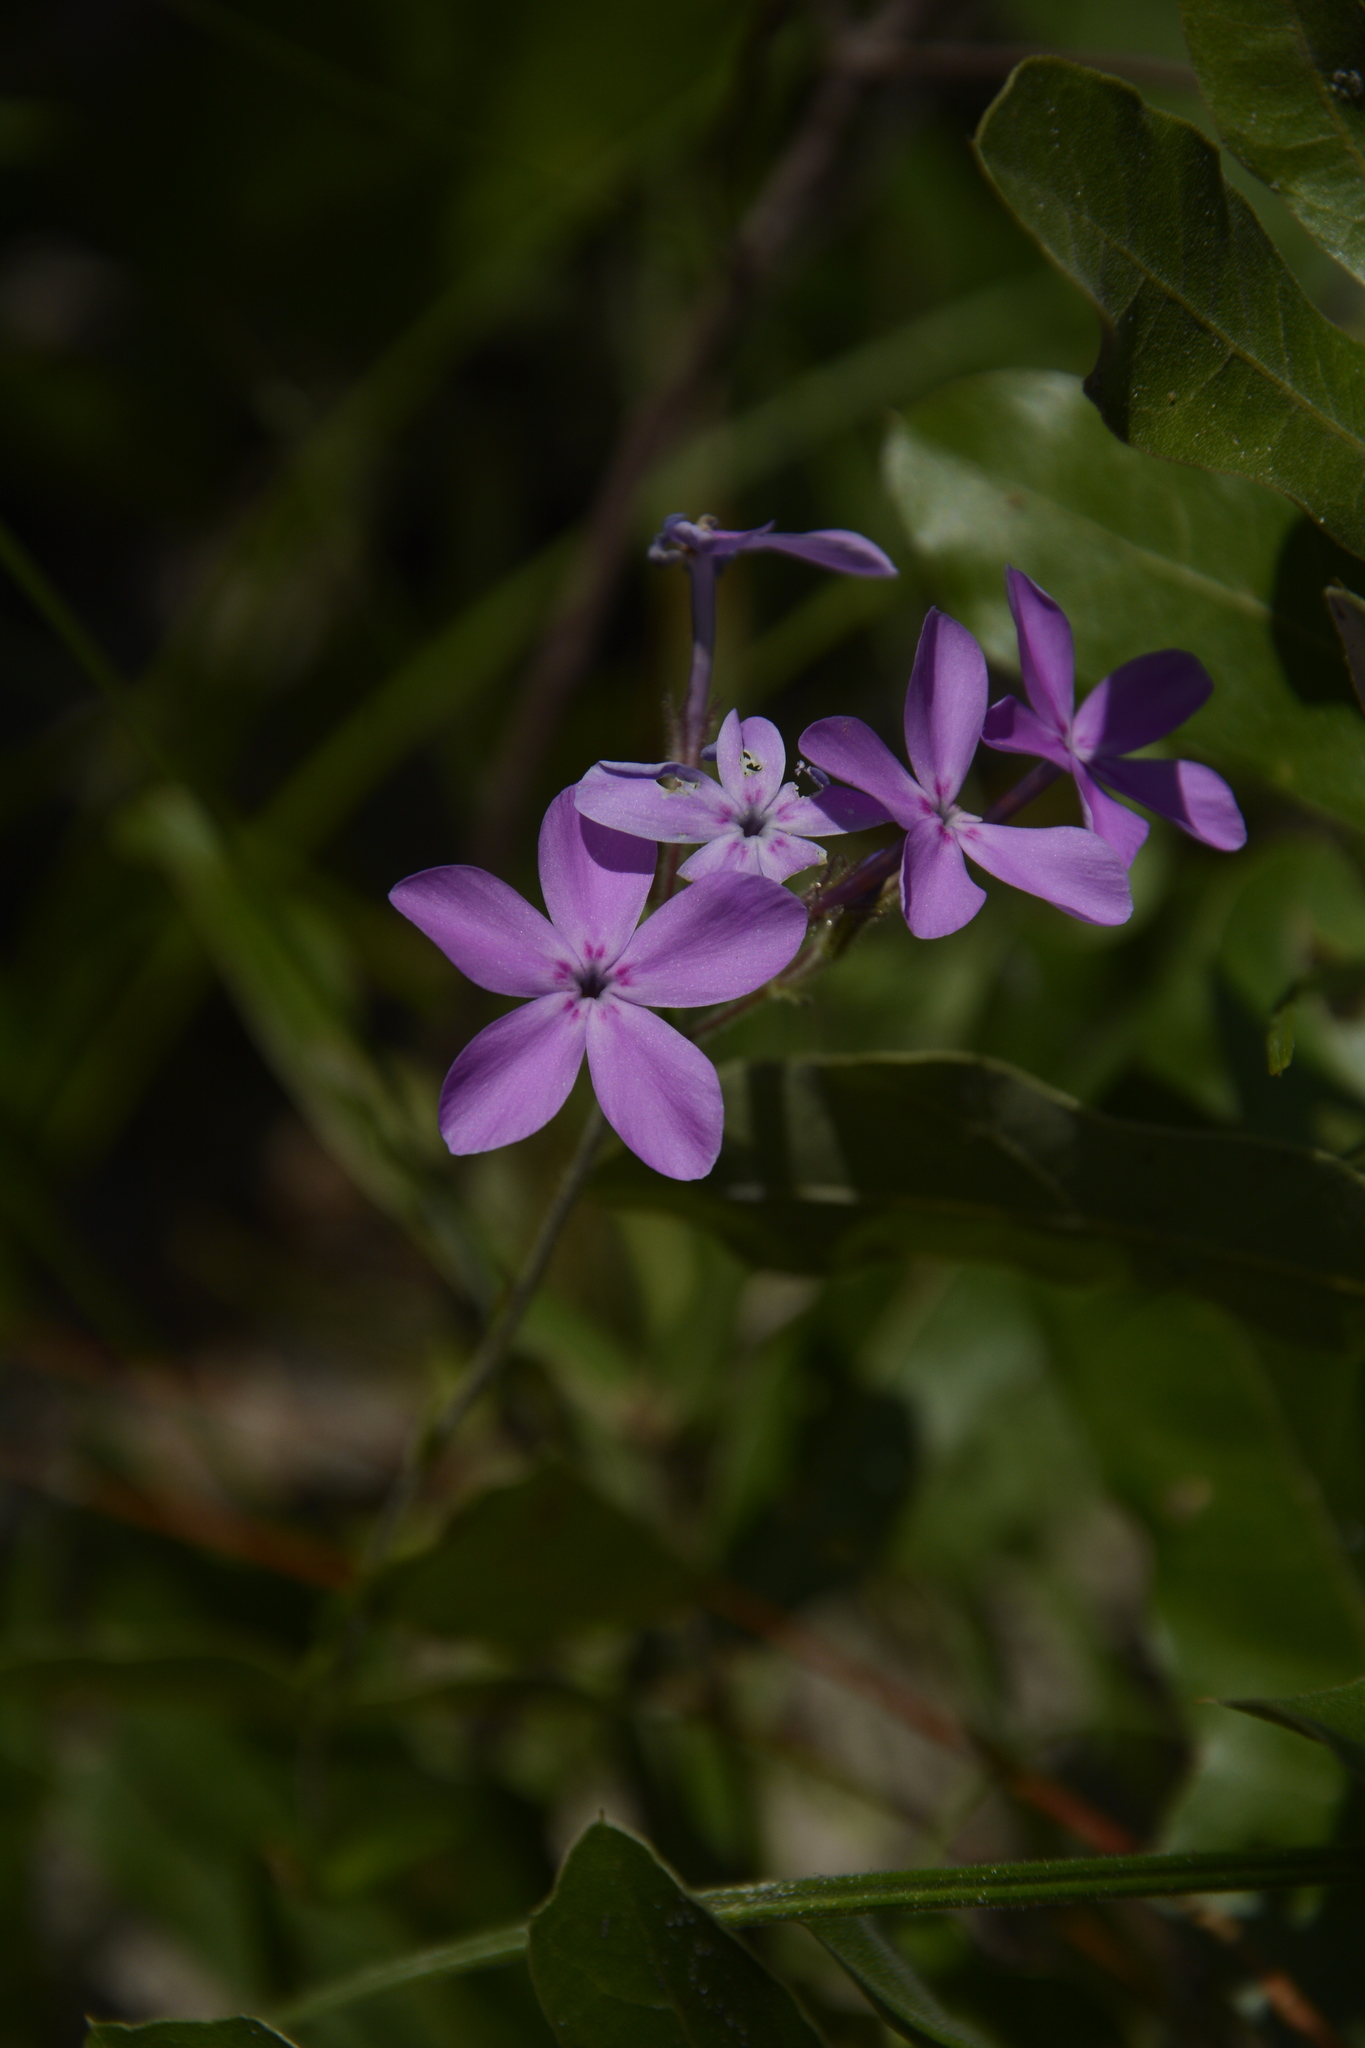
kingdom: Plantae
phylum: Tracheophyta
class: Magnoliopsida
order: Ericales
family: Polemoniaceae
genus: Phlox
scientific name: Phlox pilosa
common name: Prairie phlox
